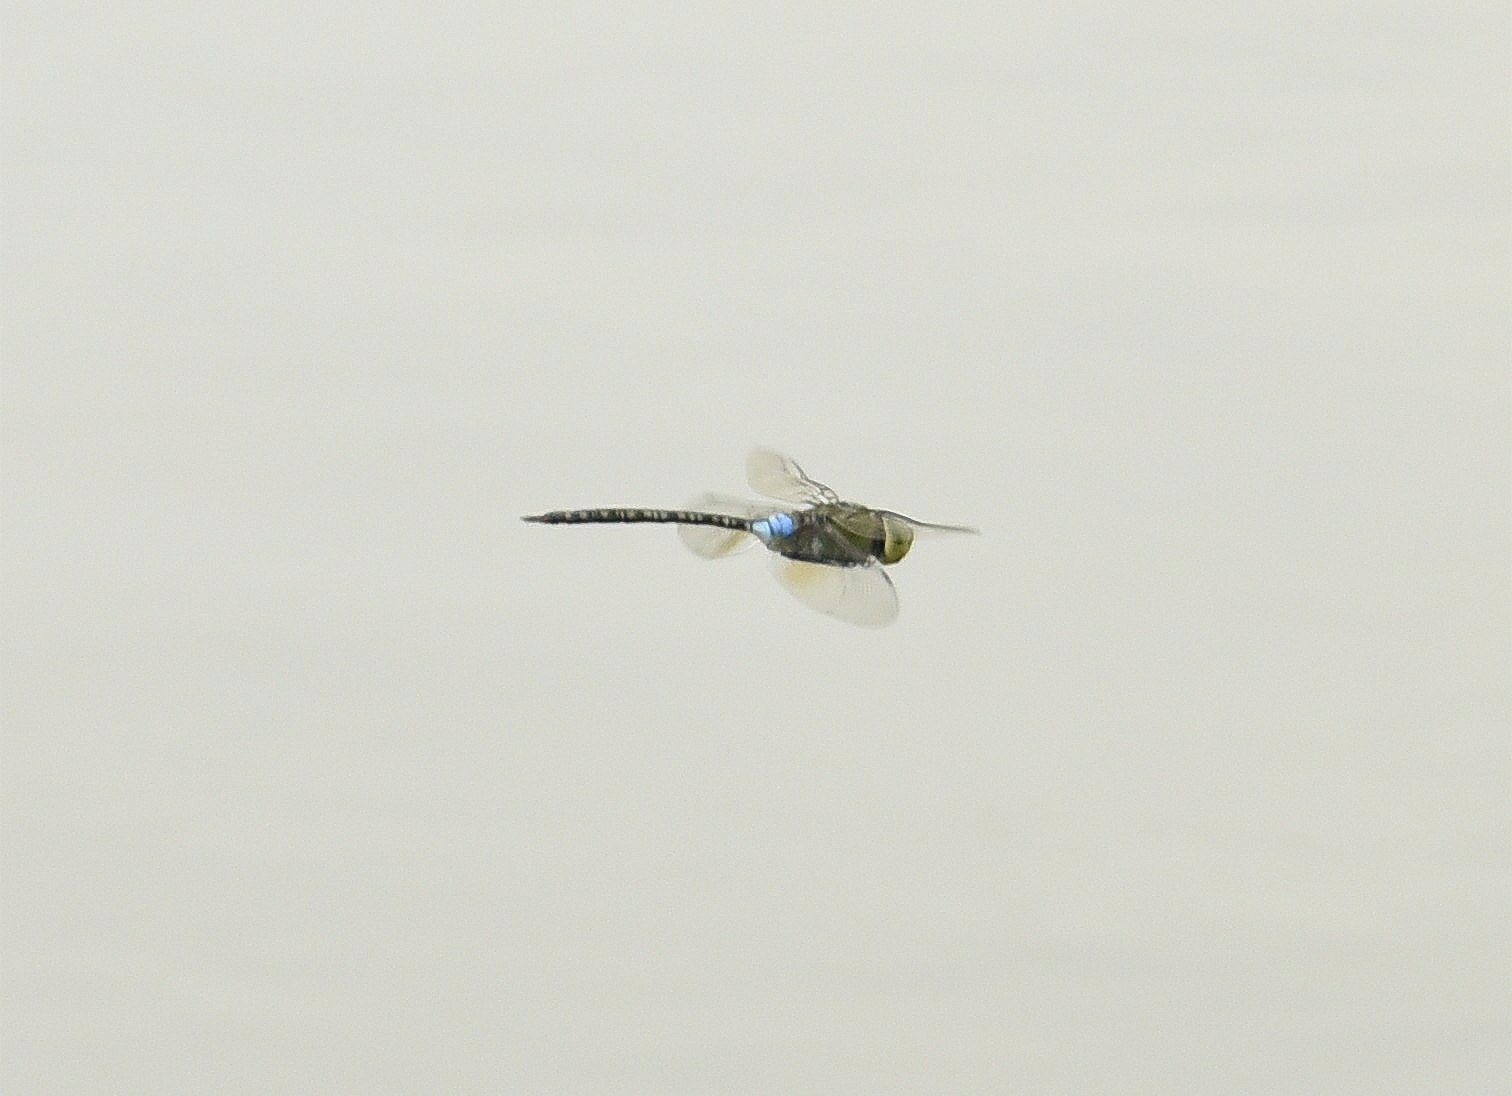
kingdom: Animalia
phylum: Arthropoda
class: Insecta
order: Odonata
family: Aeshnidae
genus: Anax
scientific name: Anax guttatus
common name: Emperor
